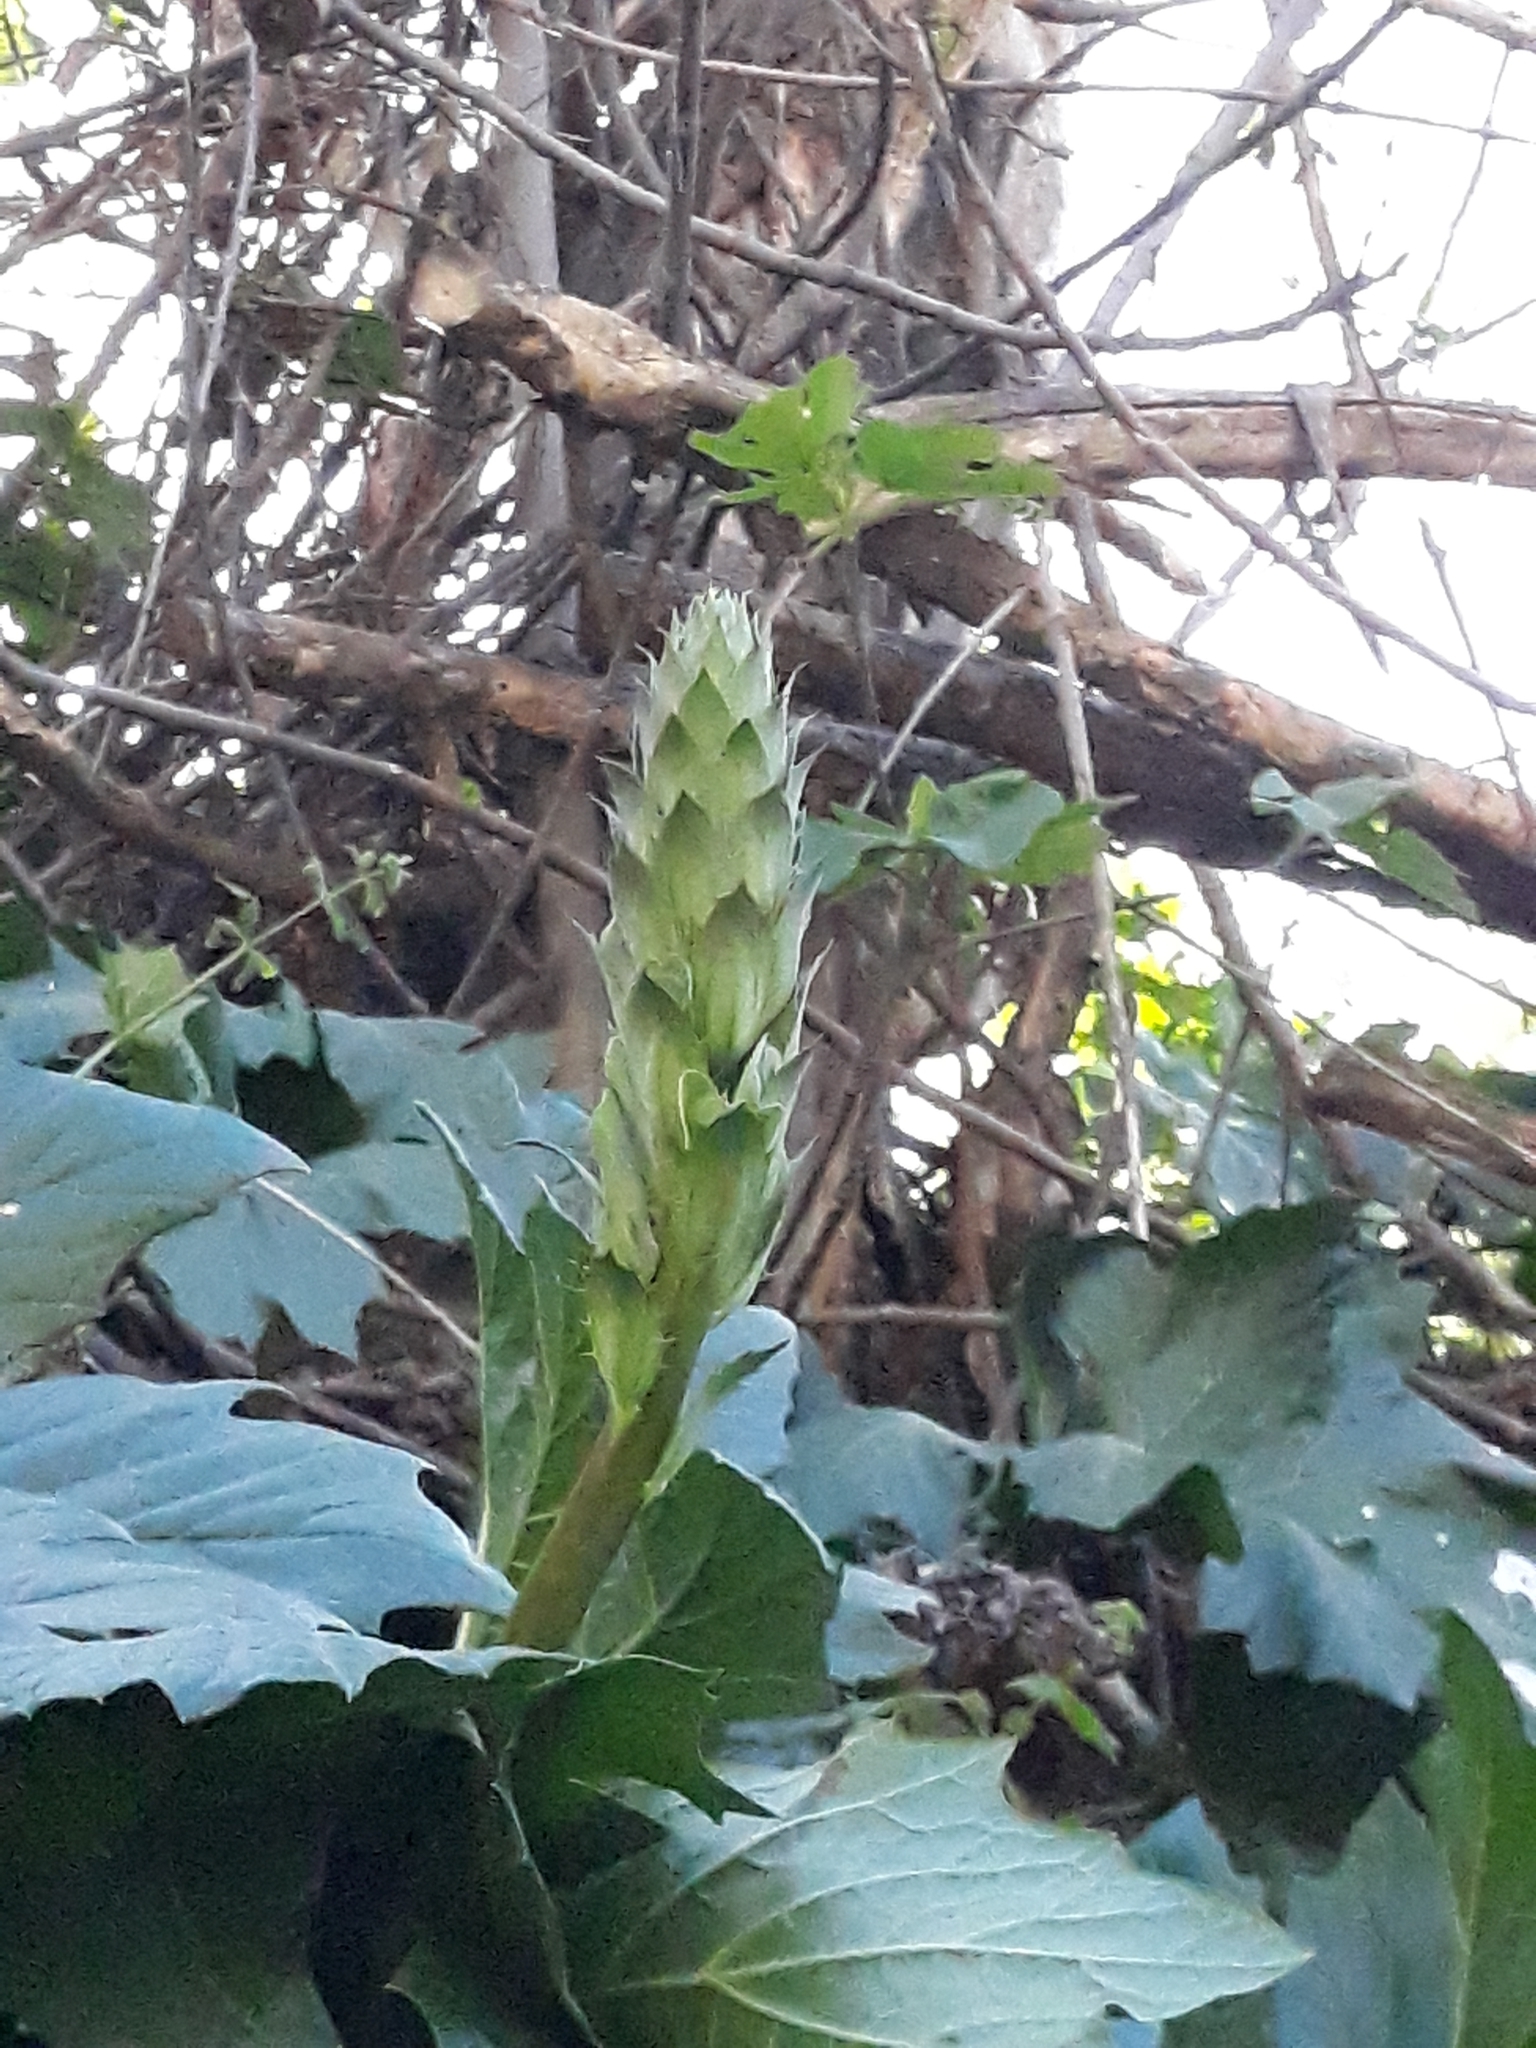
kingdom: Plantae
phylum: Tracheophyta
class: Magnoliopsida
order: Lamiales
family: Acanthaceae
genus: Acanthus
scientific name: Acanthus mollis
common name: Bear's-breech
